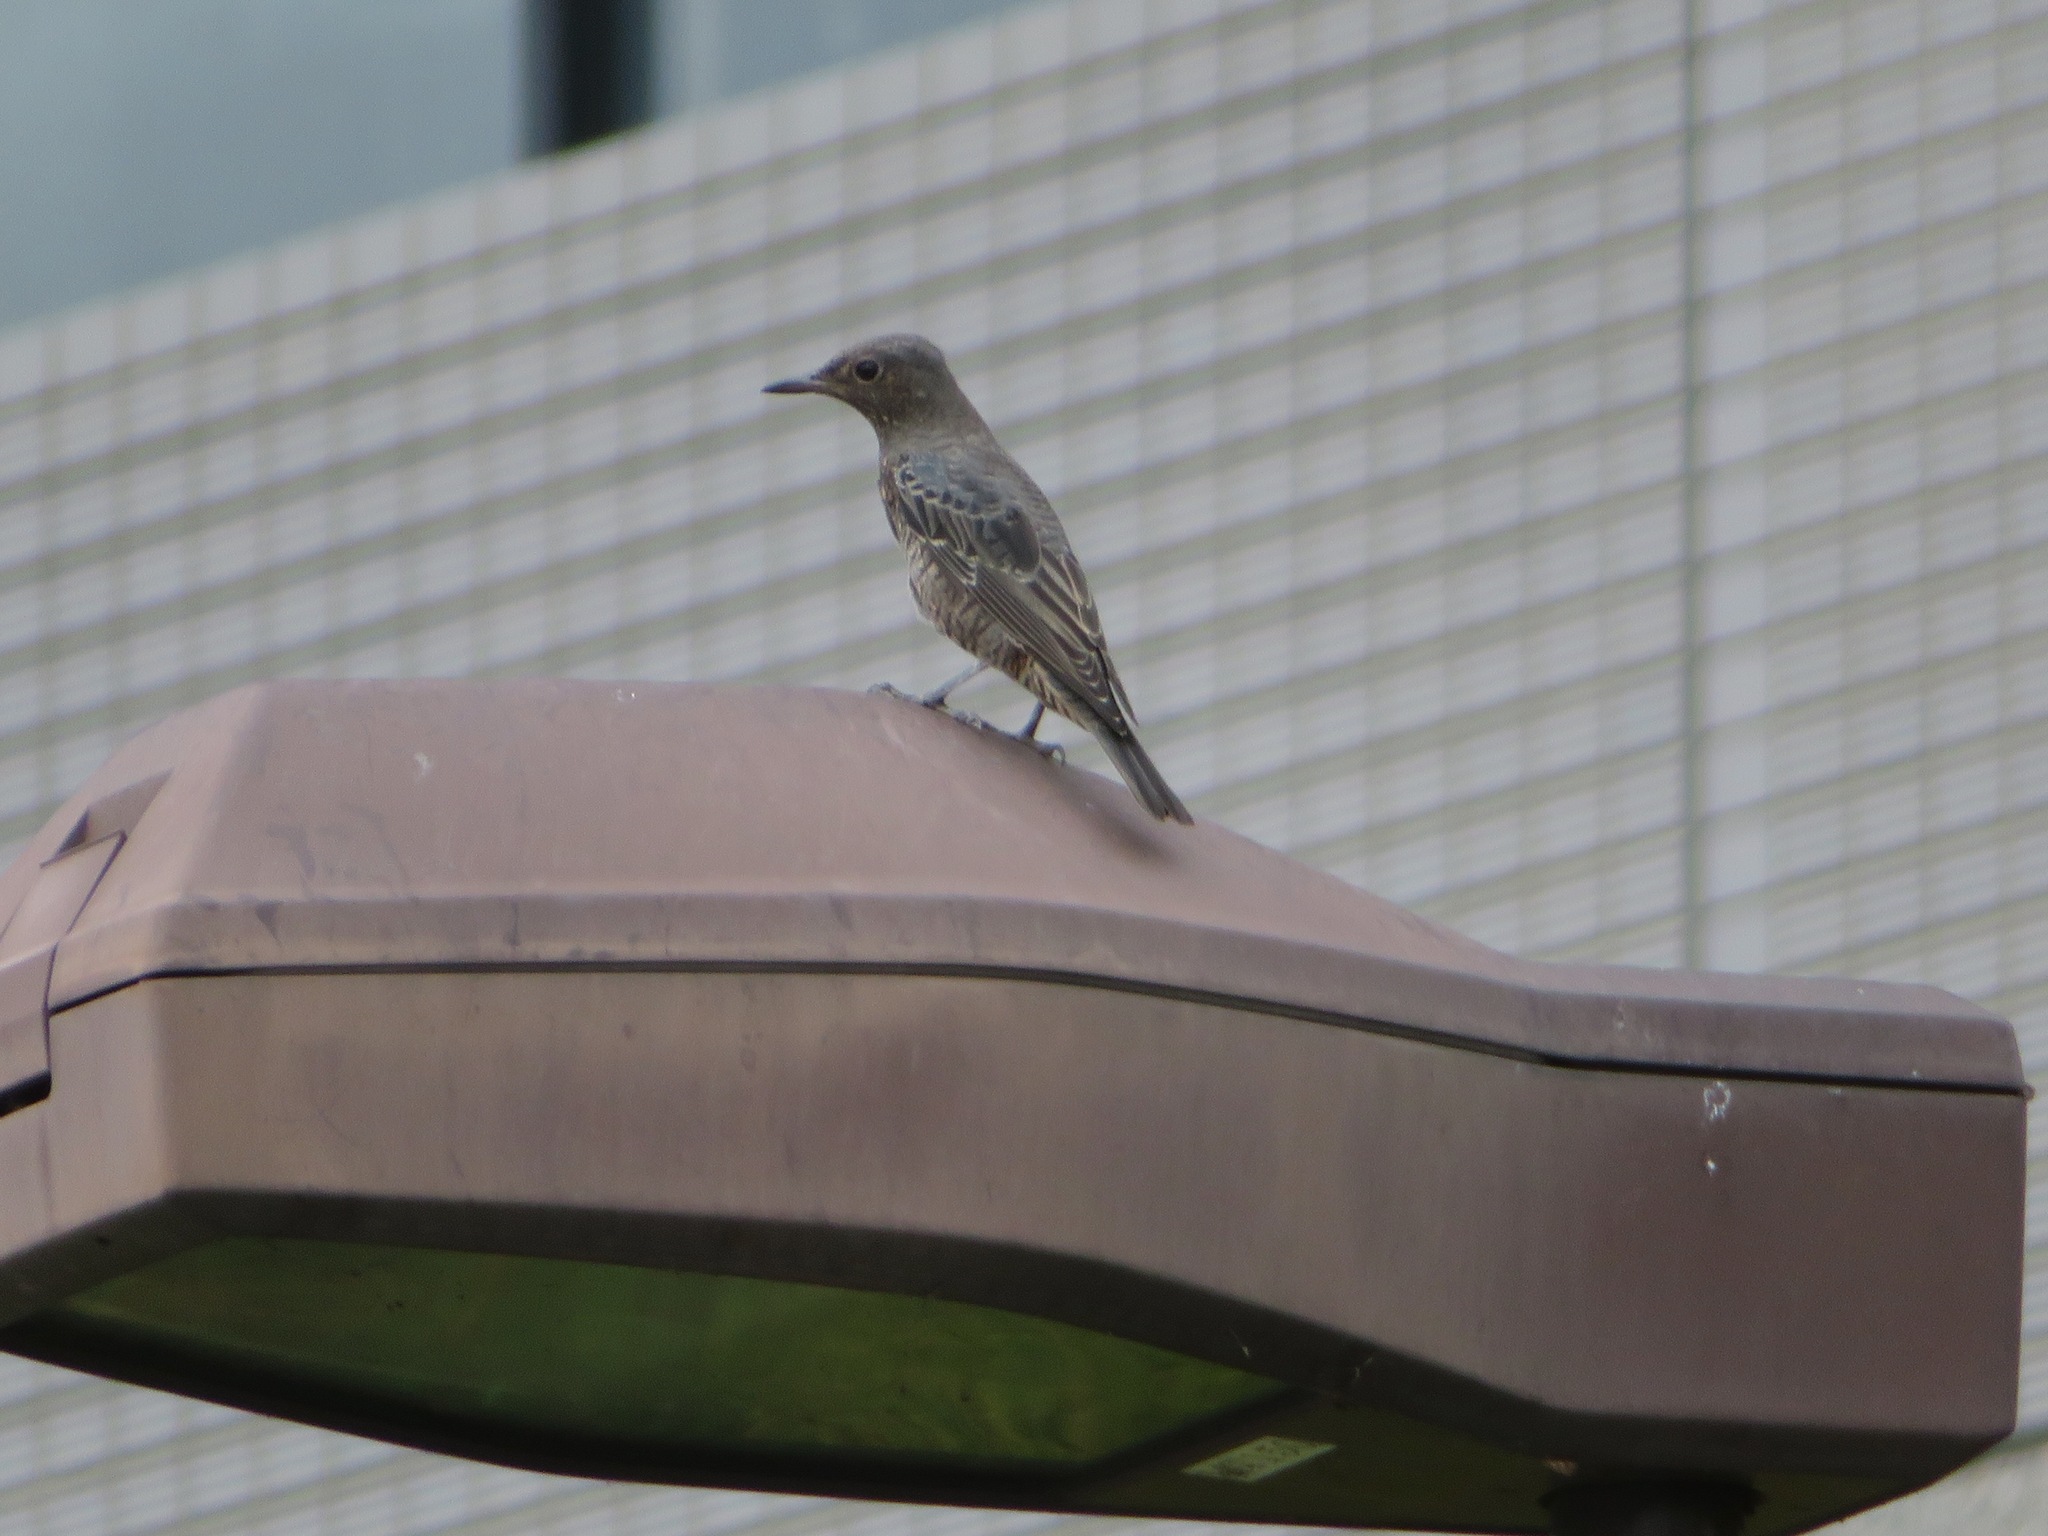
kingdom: Animalia
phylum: Chordata
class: Aves
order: Passeriformes
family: Muscicapidae
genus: Monticola
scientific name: Monticola solitarius
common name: Blue rock thrush
